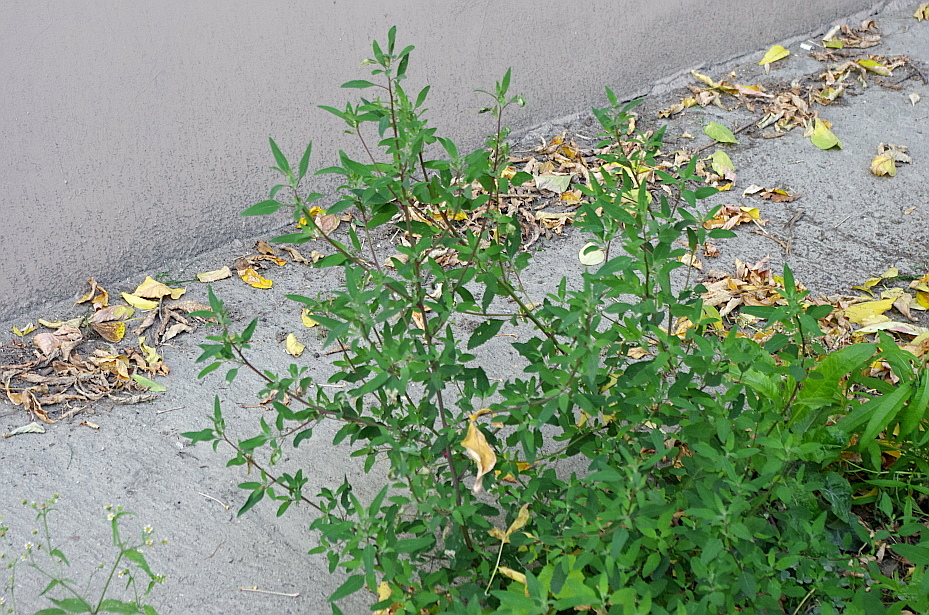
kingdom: Plantae
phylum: Tracheophyta
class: Magnoliopsida
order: Caryophyllales
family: Amaranthaceae
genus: Chenopodium
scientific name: Chenopodium betaceum
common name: Striped goosefoot
